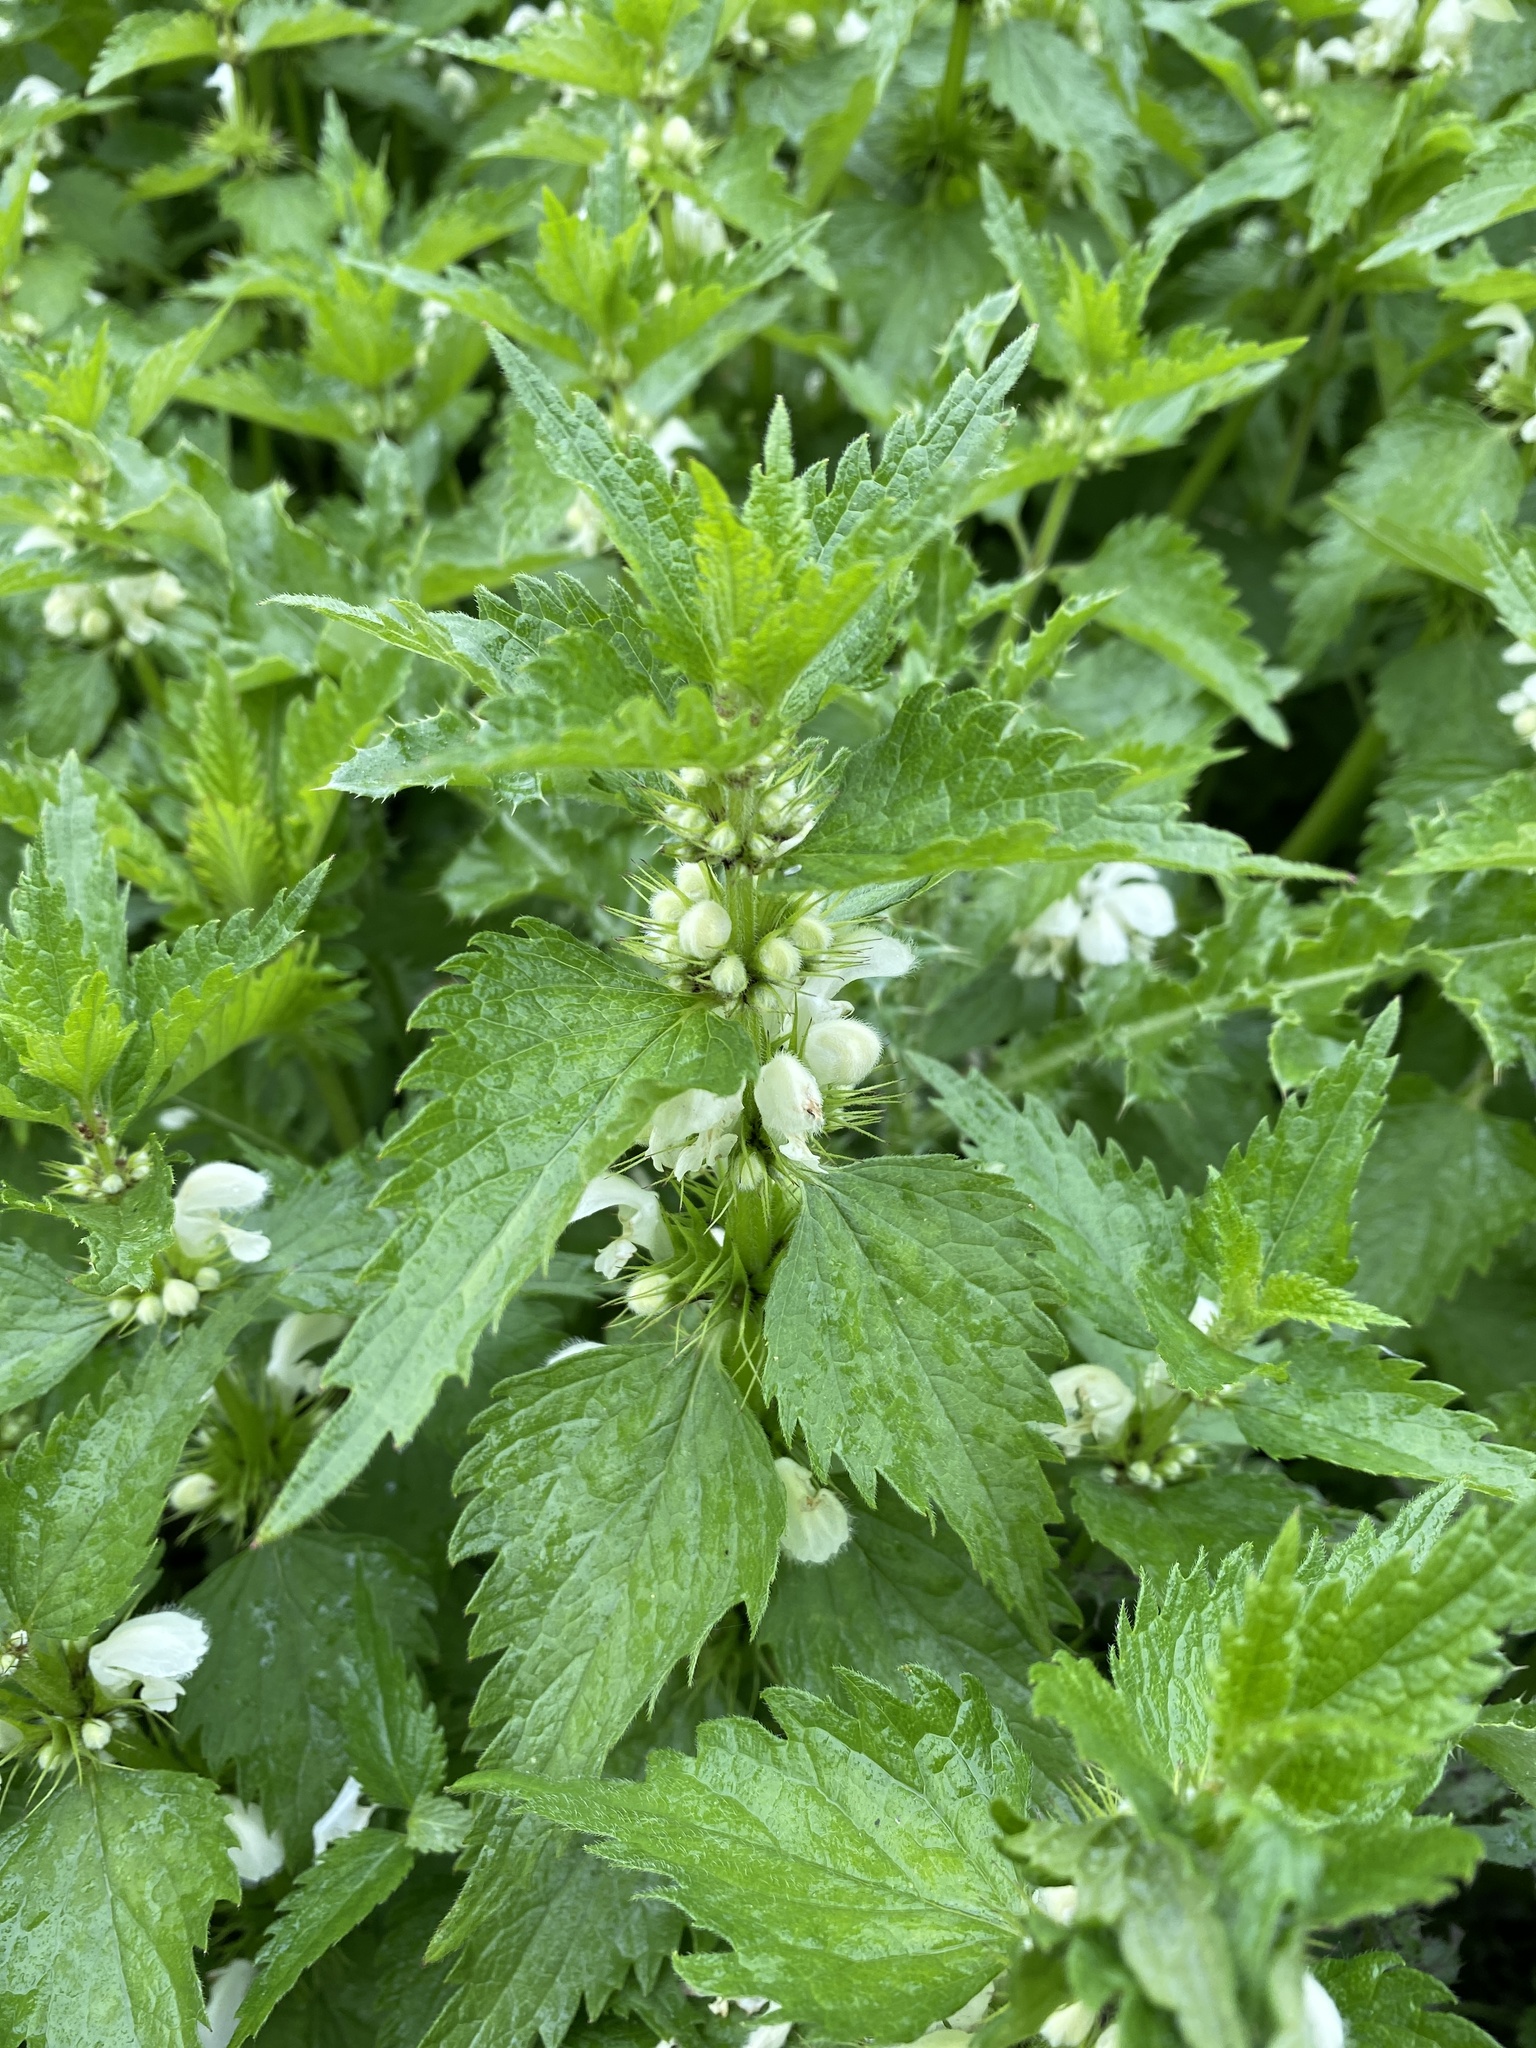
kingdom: Plantae
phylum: Tracheophyta
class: Magnoliopsida
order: Lamiales
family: Lamiaceae
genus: Lamium
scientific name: Lamium album
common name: White dead-nettle
